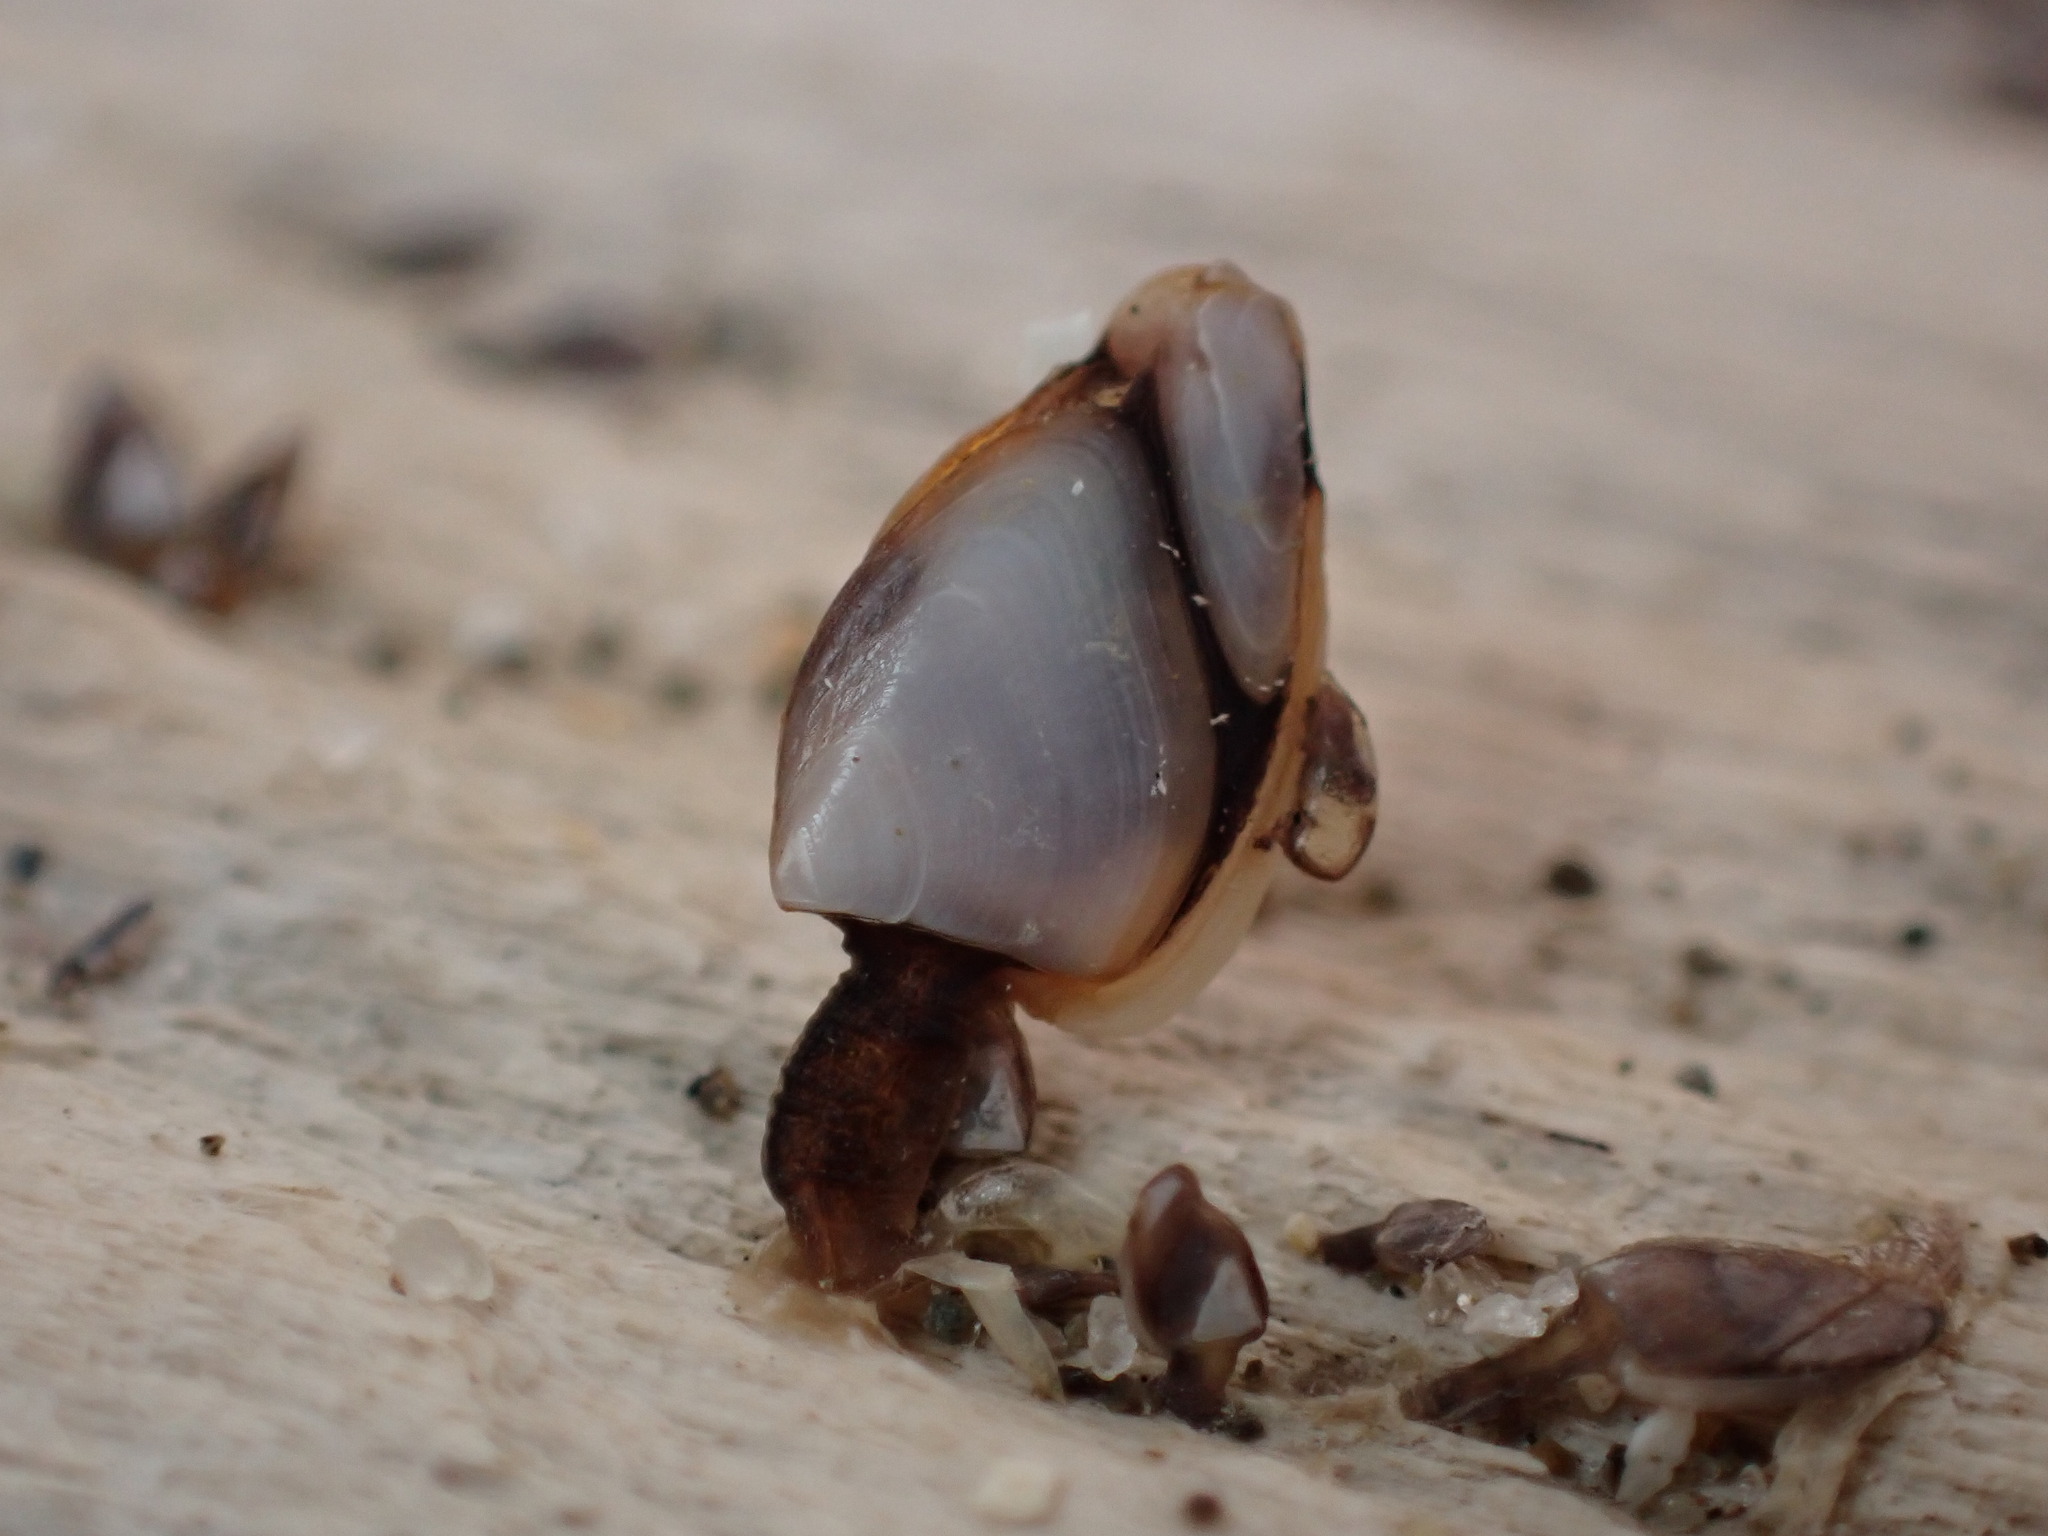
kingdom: Animalia
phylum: Arthropoda
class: Maxillopoda
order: Pedunculata
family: Lepadidae
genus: Lepas
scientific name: Lepas anatifera
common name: Common goose barnacle
